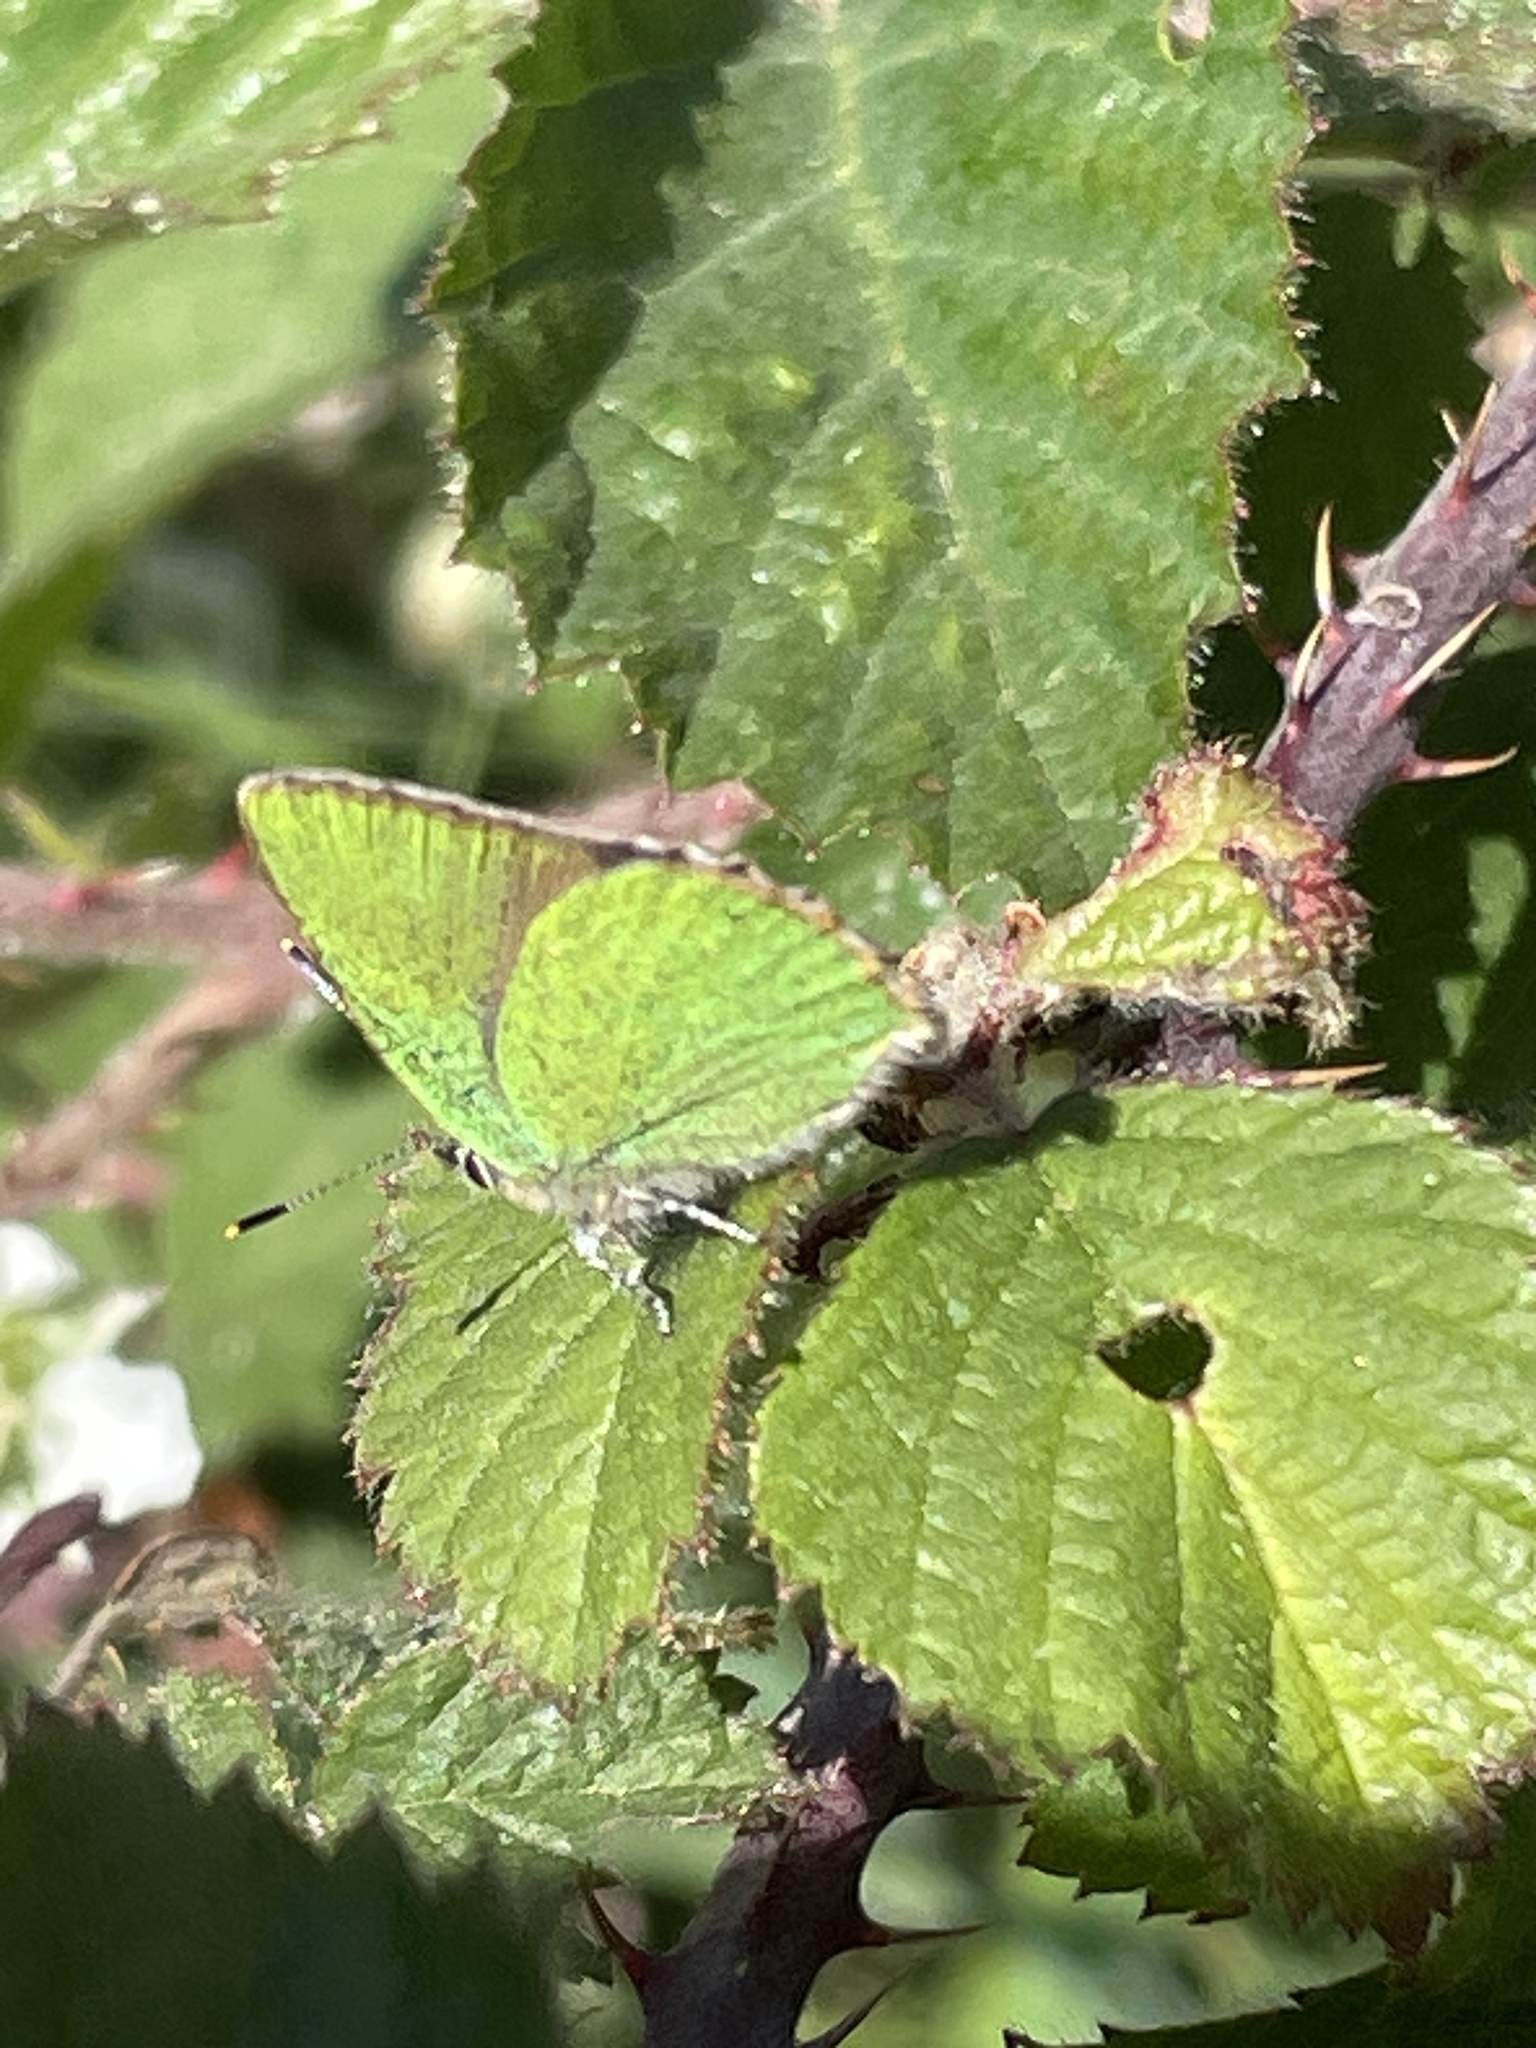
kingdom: Animalia
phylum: Arthropoda
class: Insecta
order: Lepidoptera
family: Lycaenidae
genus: Callophrys
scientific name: Callophrys rubi
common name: Green hairstreak
